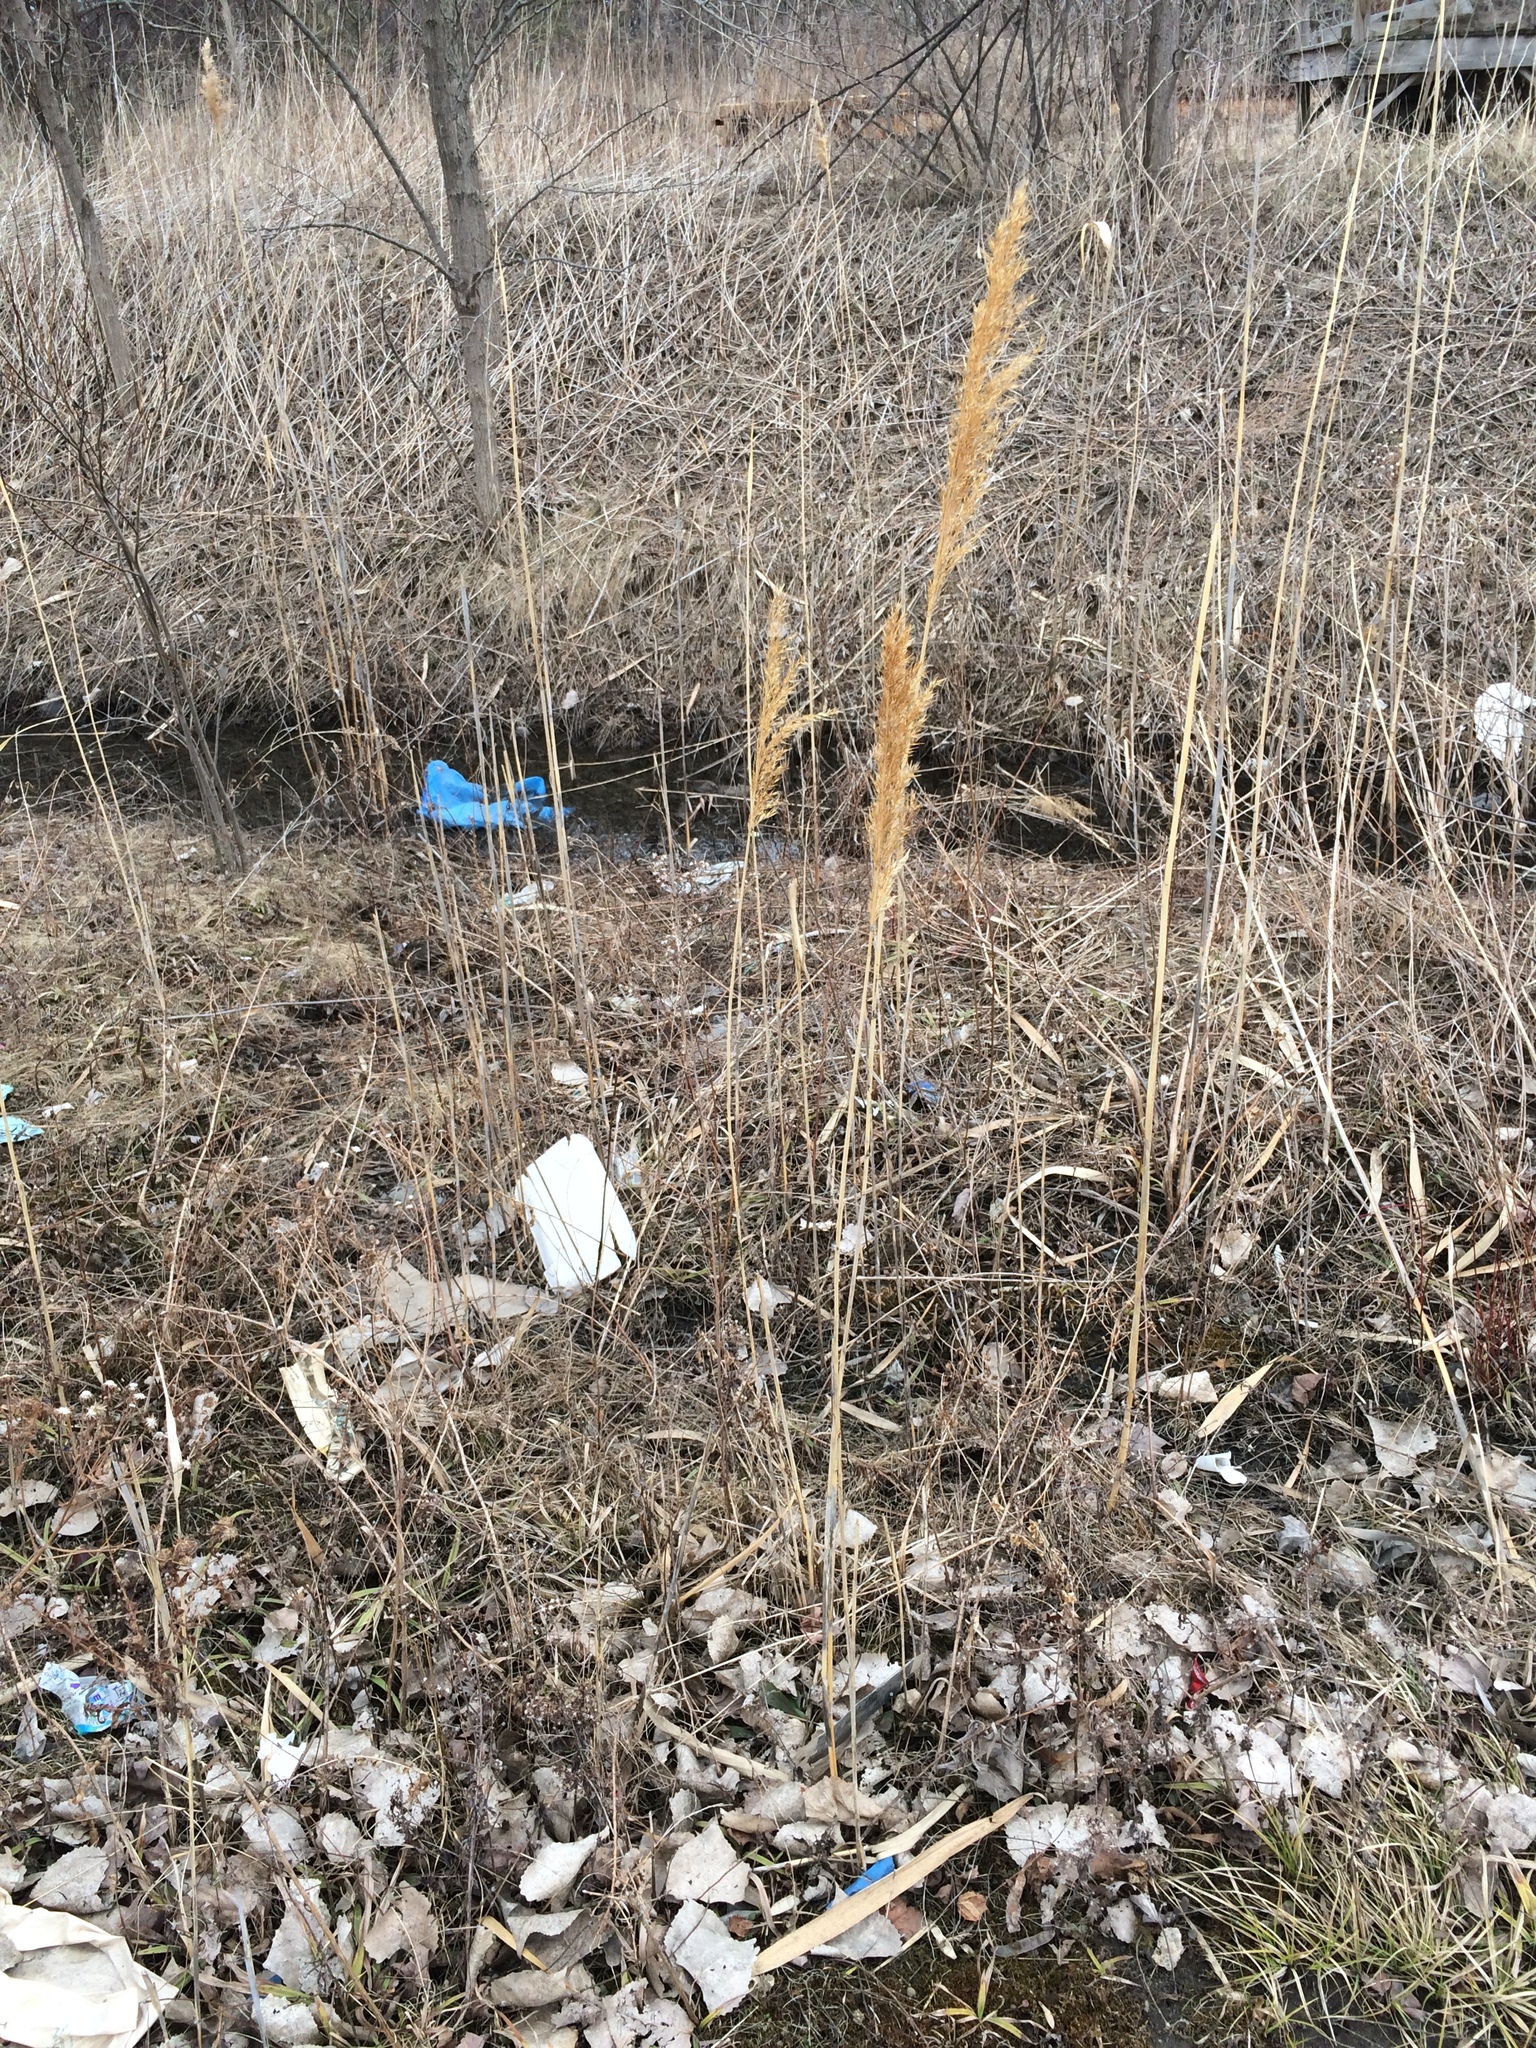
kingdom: Plantae
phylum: Tracheophyta
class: Liliopsida
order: Poales
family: Poaceae
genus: Phragmites
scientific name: Phragmites australis
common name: Common reed
